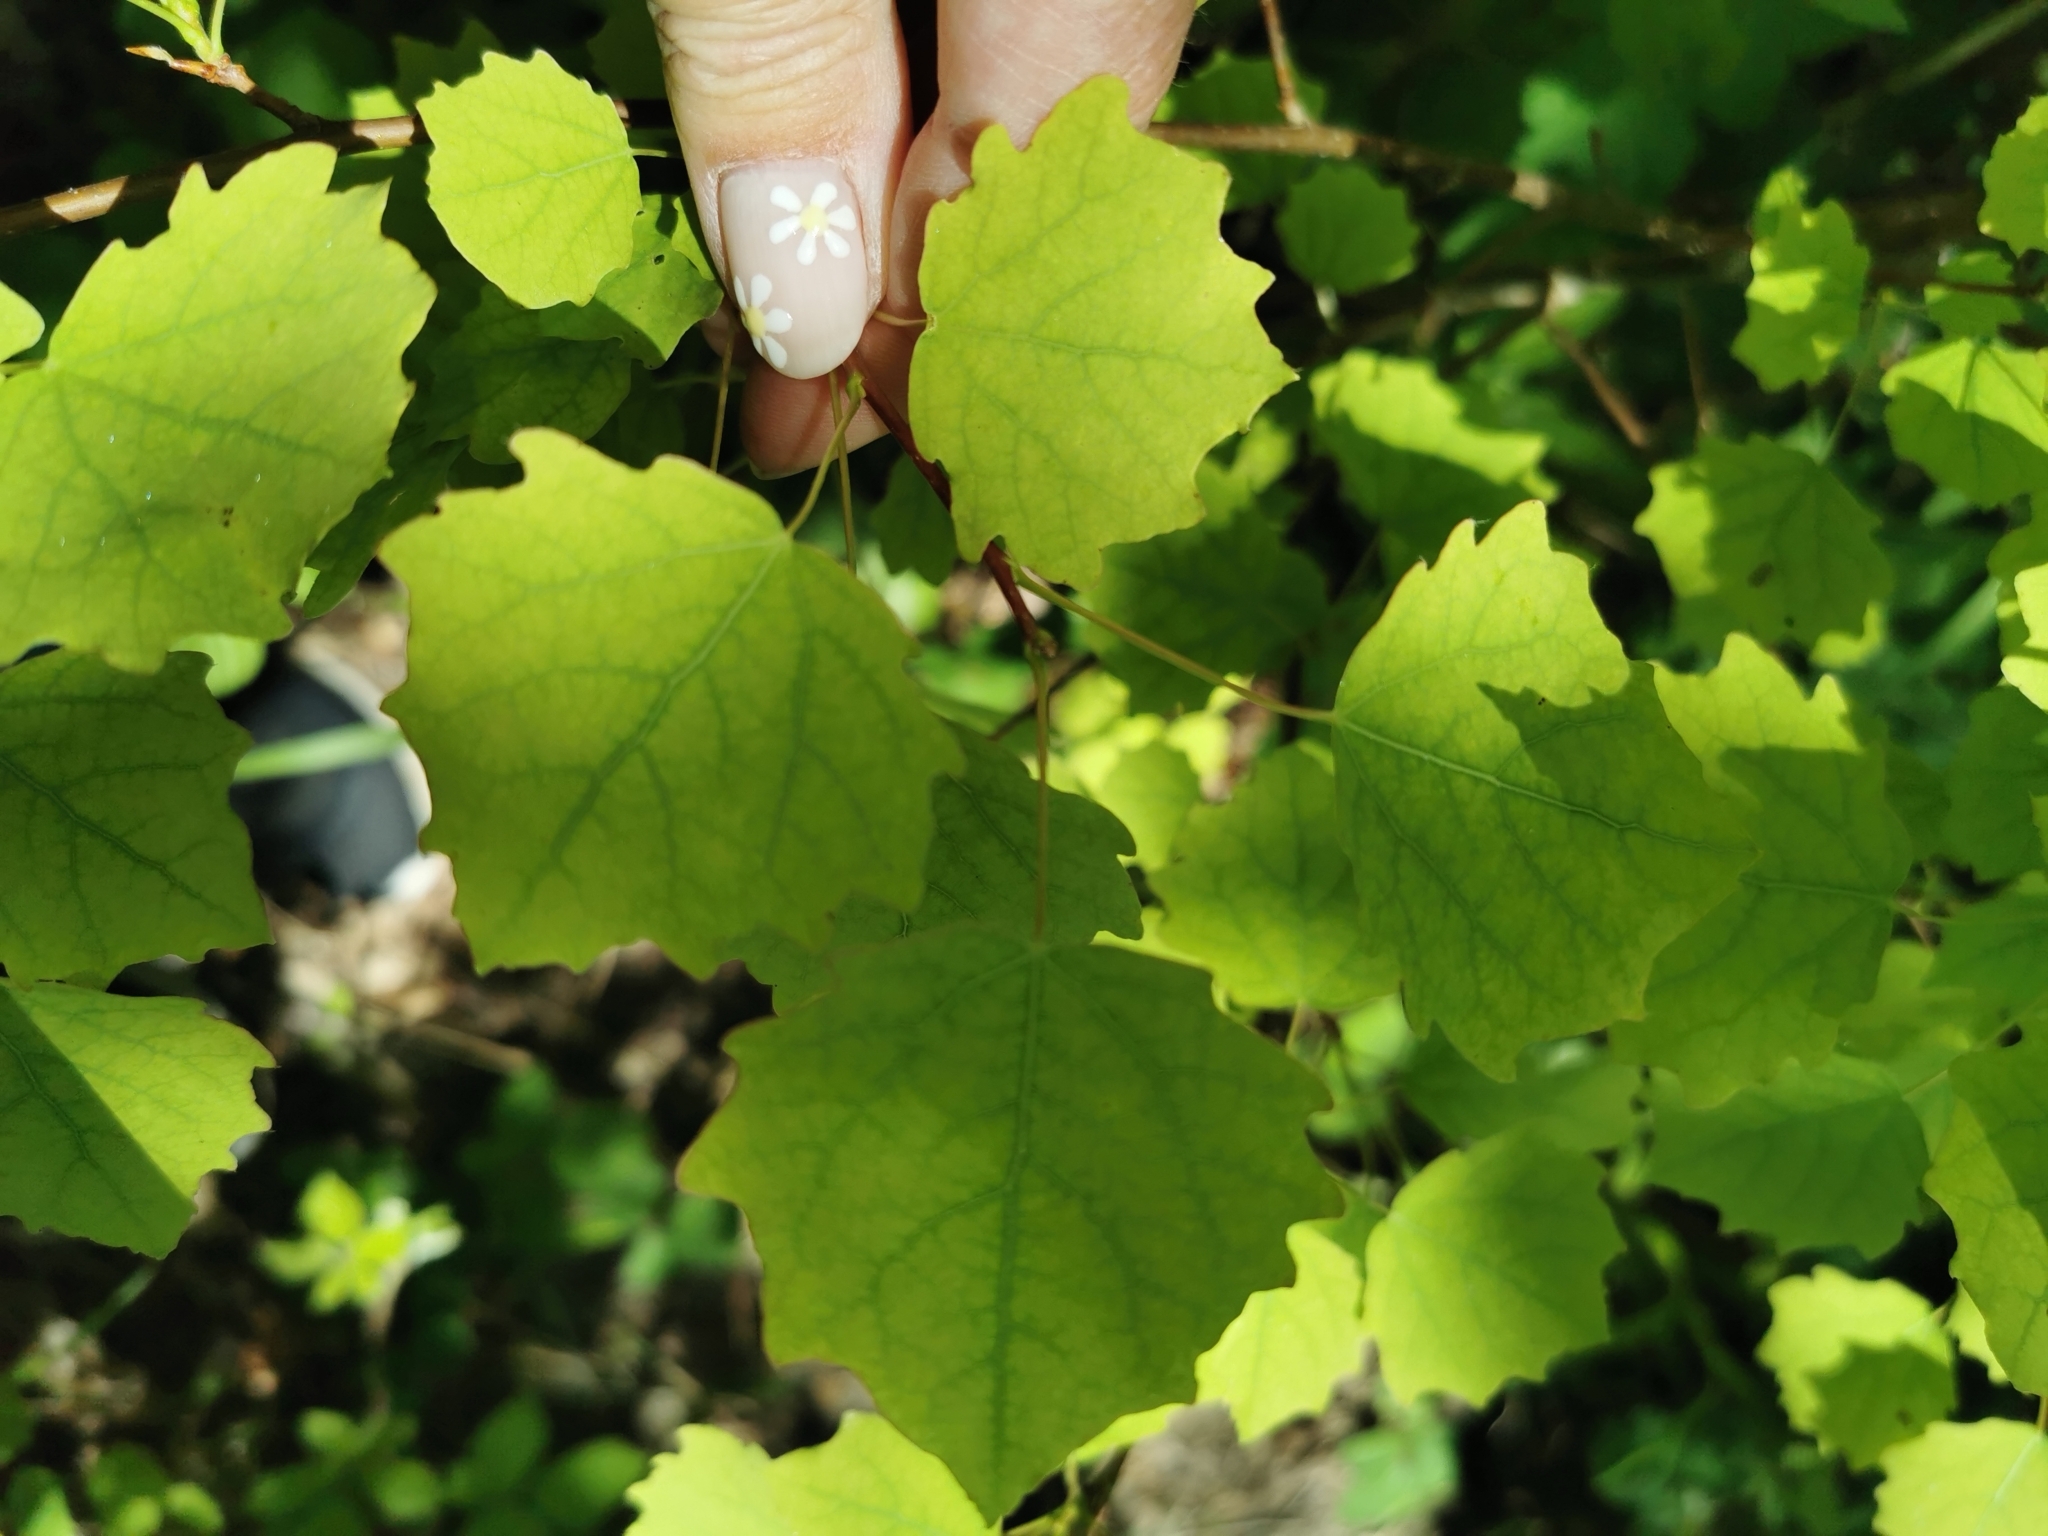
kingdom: Plantae
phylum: Tracheophyta
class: Magnoliopsida
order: Malpighiales
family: Salicaceae
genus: Populus
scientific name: Populus tremula
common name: European aspen
